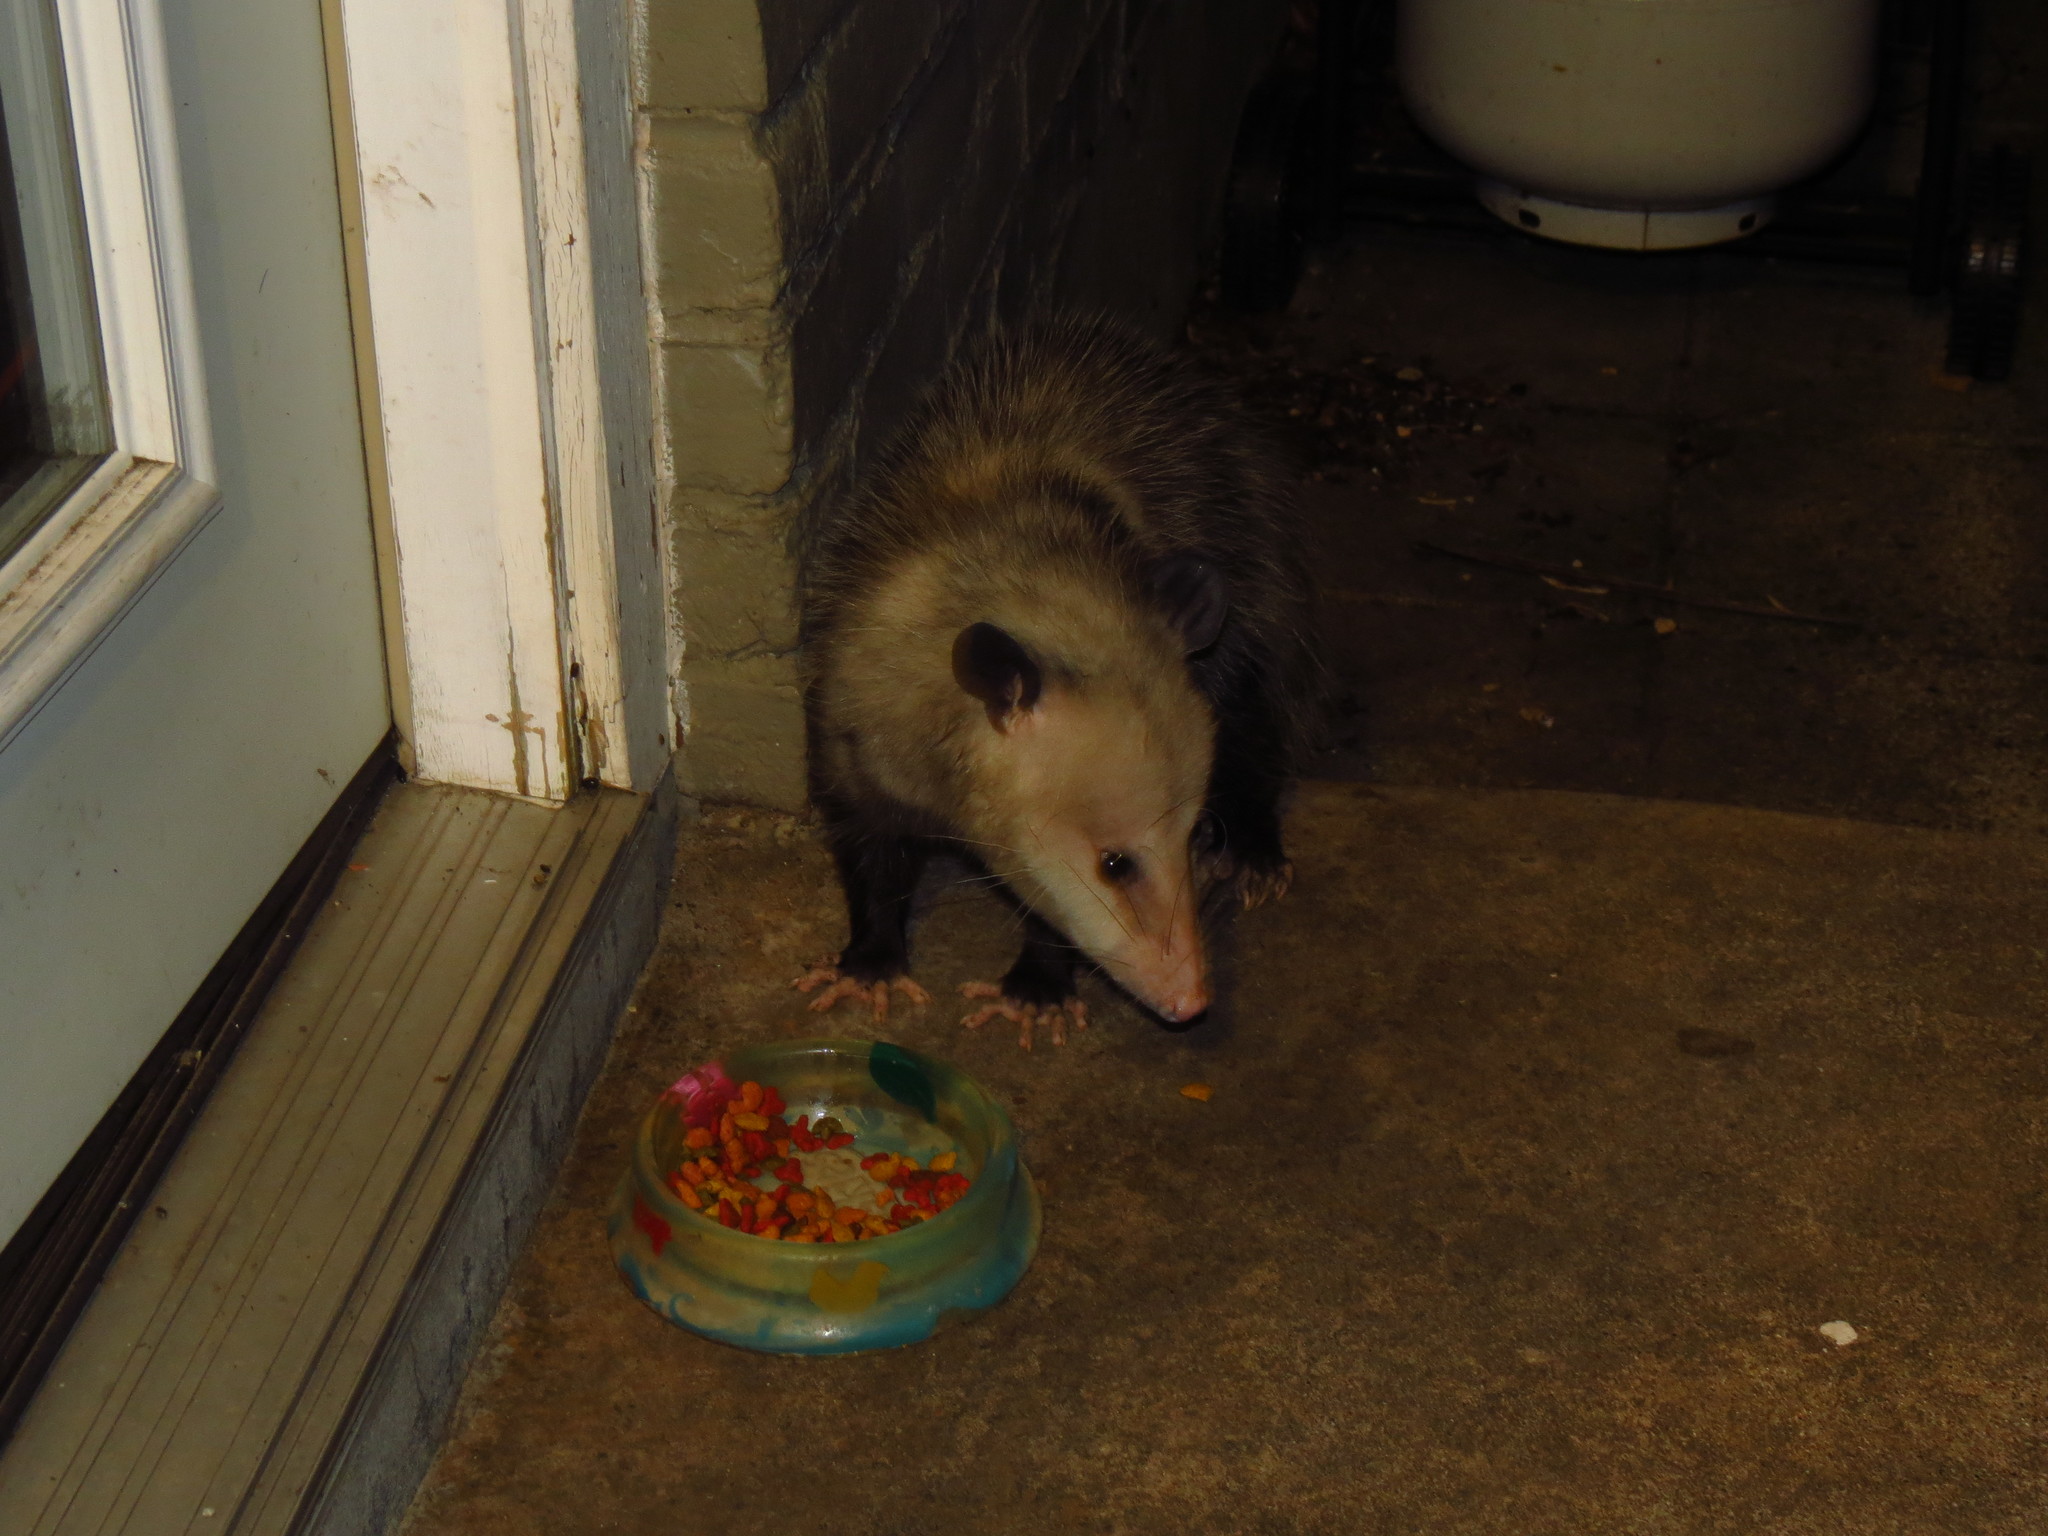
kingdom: Animalia
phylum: Chordata
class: Mammalia
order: Didelphimorphia
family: Didelphidae
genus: Didelphis
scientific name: Didelphis virginiana
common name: Virginia opossum
